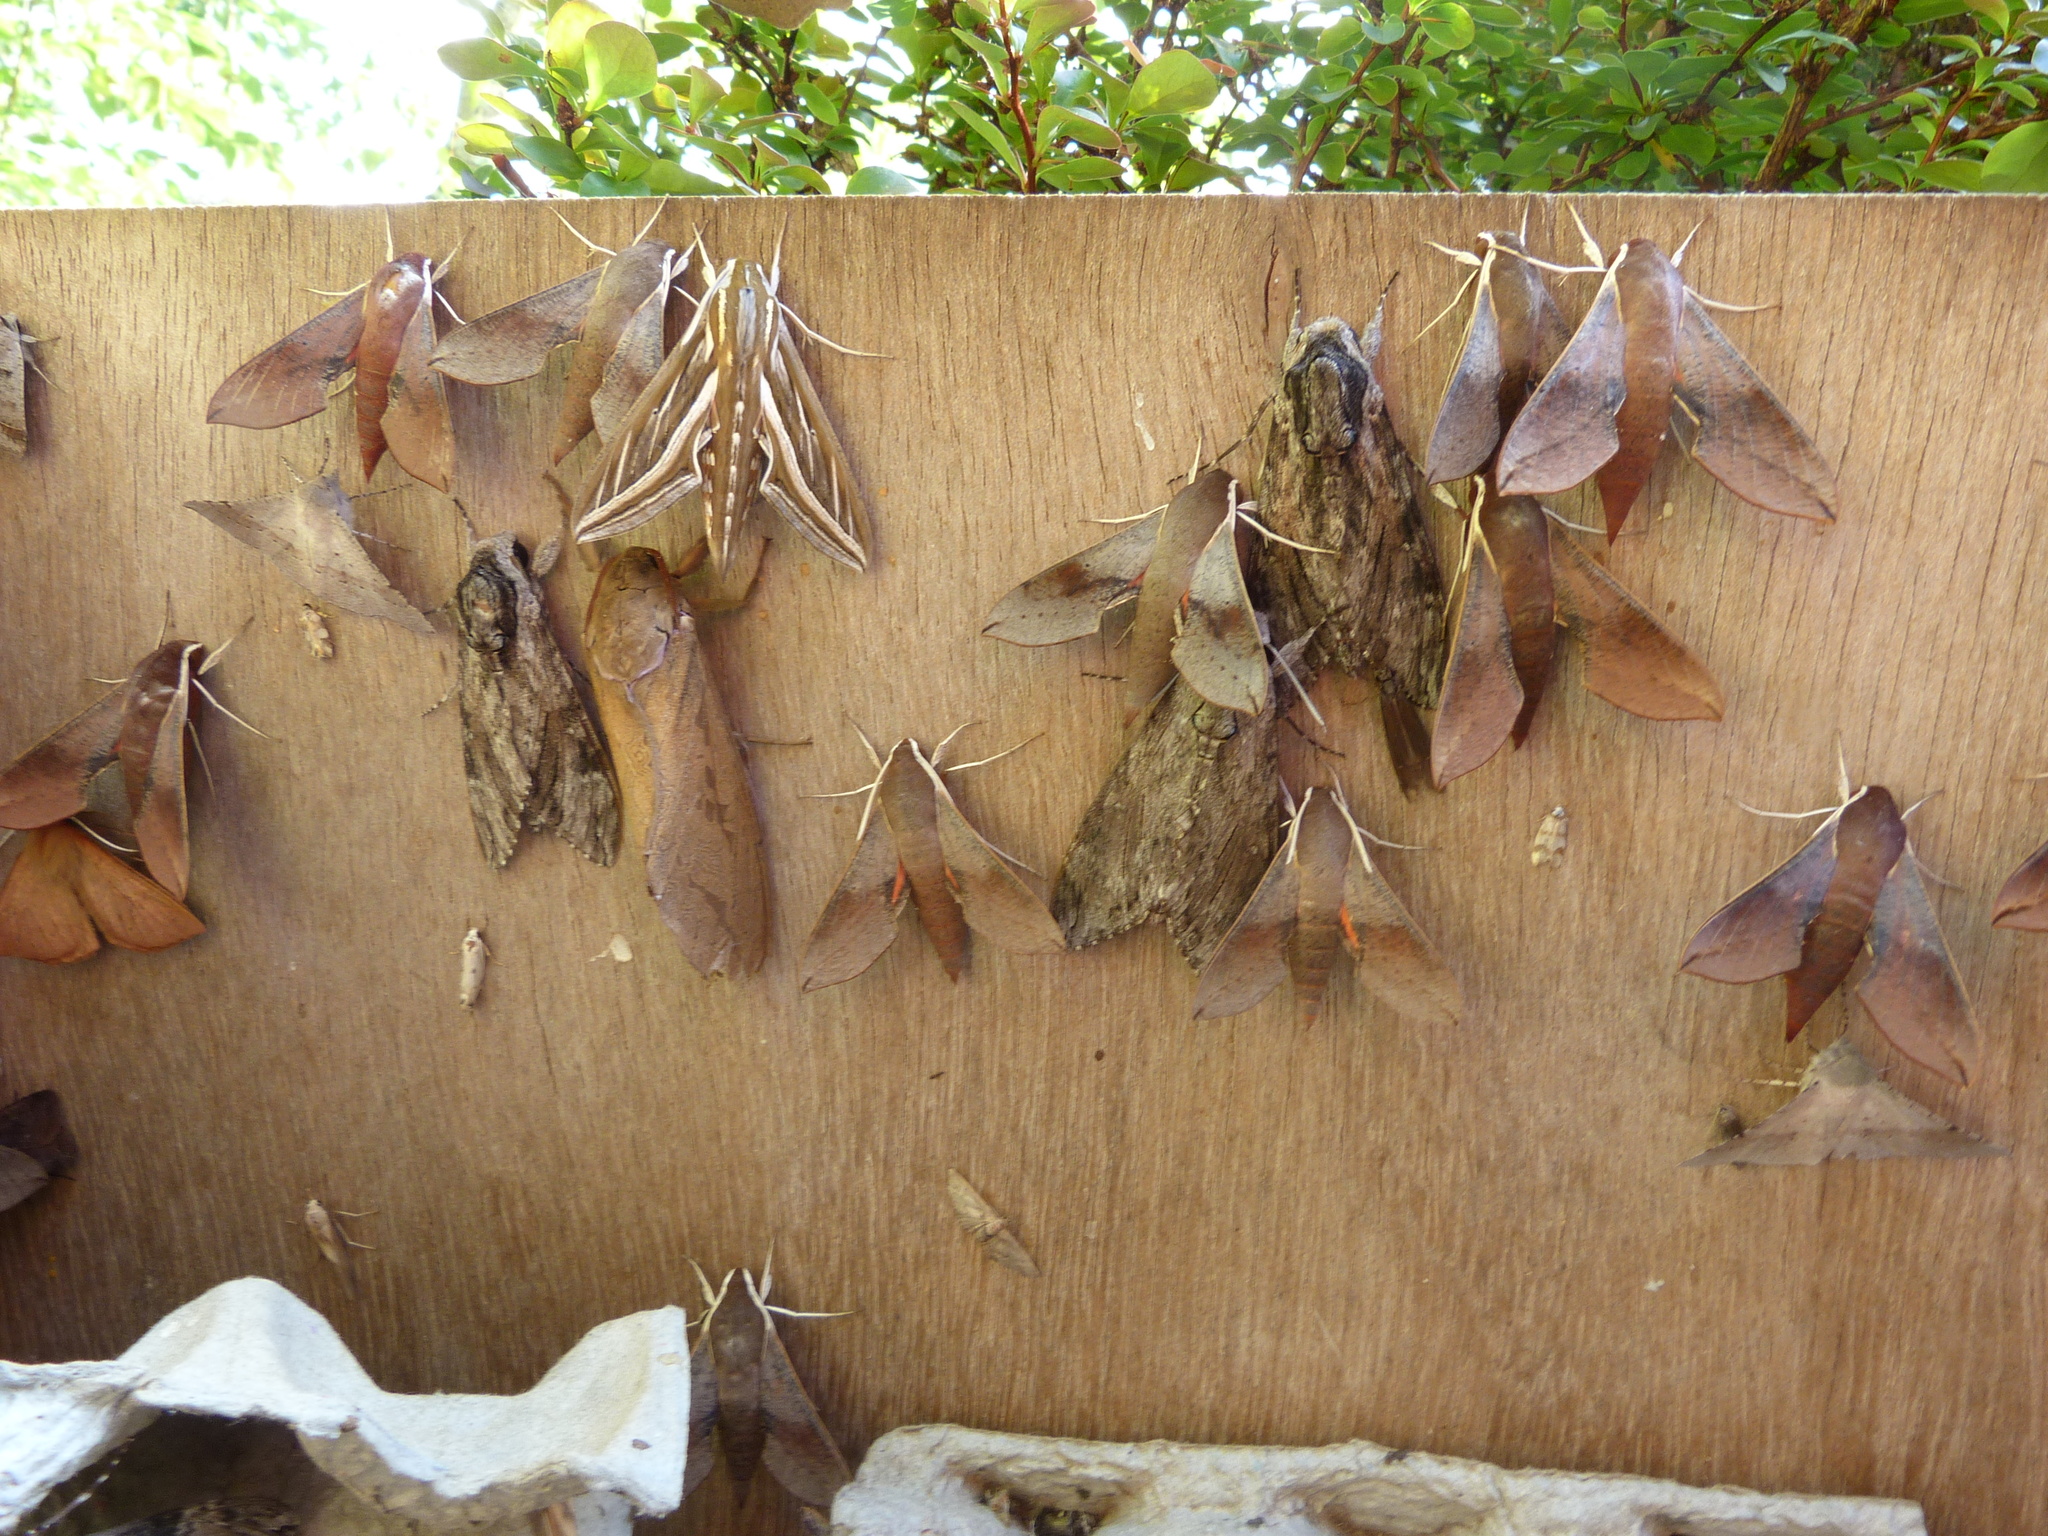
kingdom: Animalia
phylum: Arthropoda
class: Insecta
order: Lepidoptera
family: Sphingidae
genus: Agrius
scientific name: Agrius convolvuli
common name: Convolvulus hawkmoth
